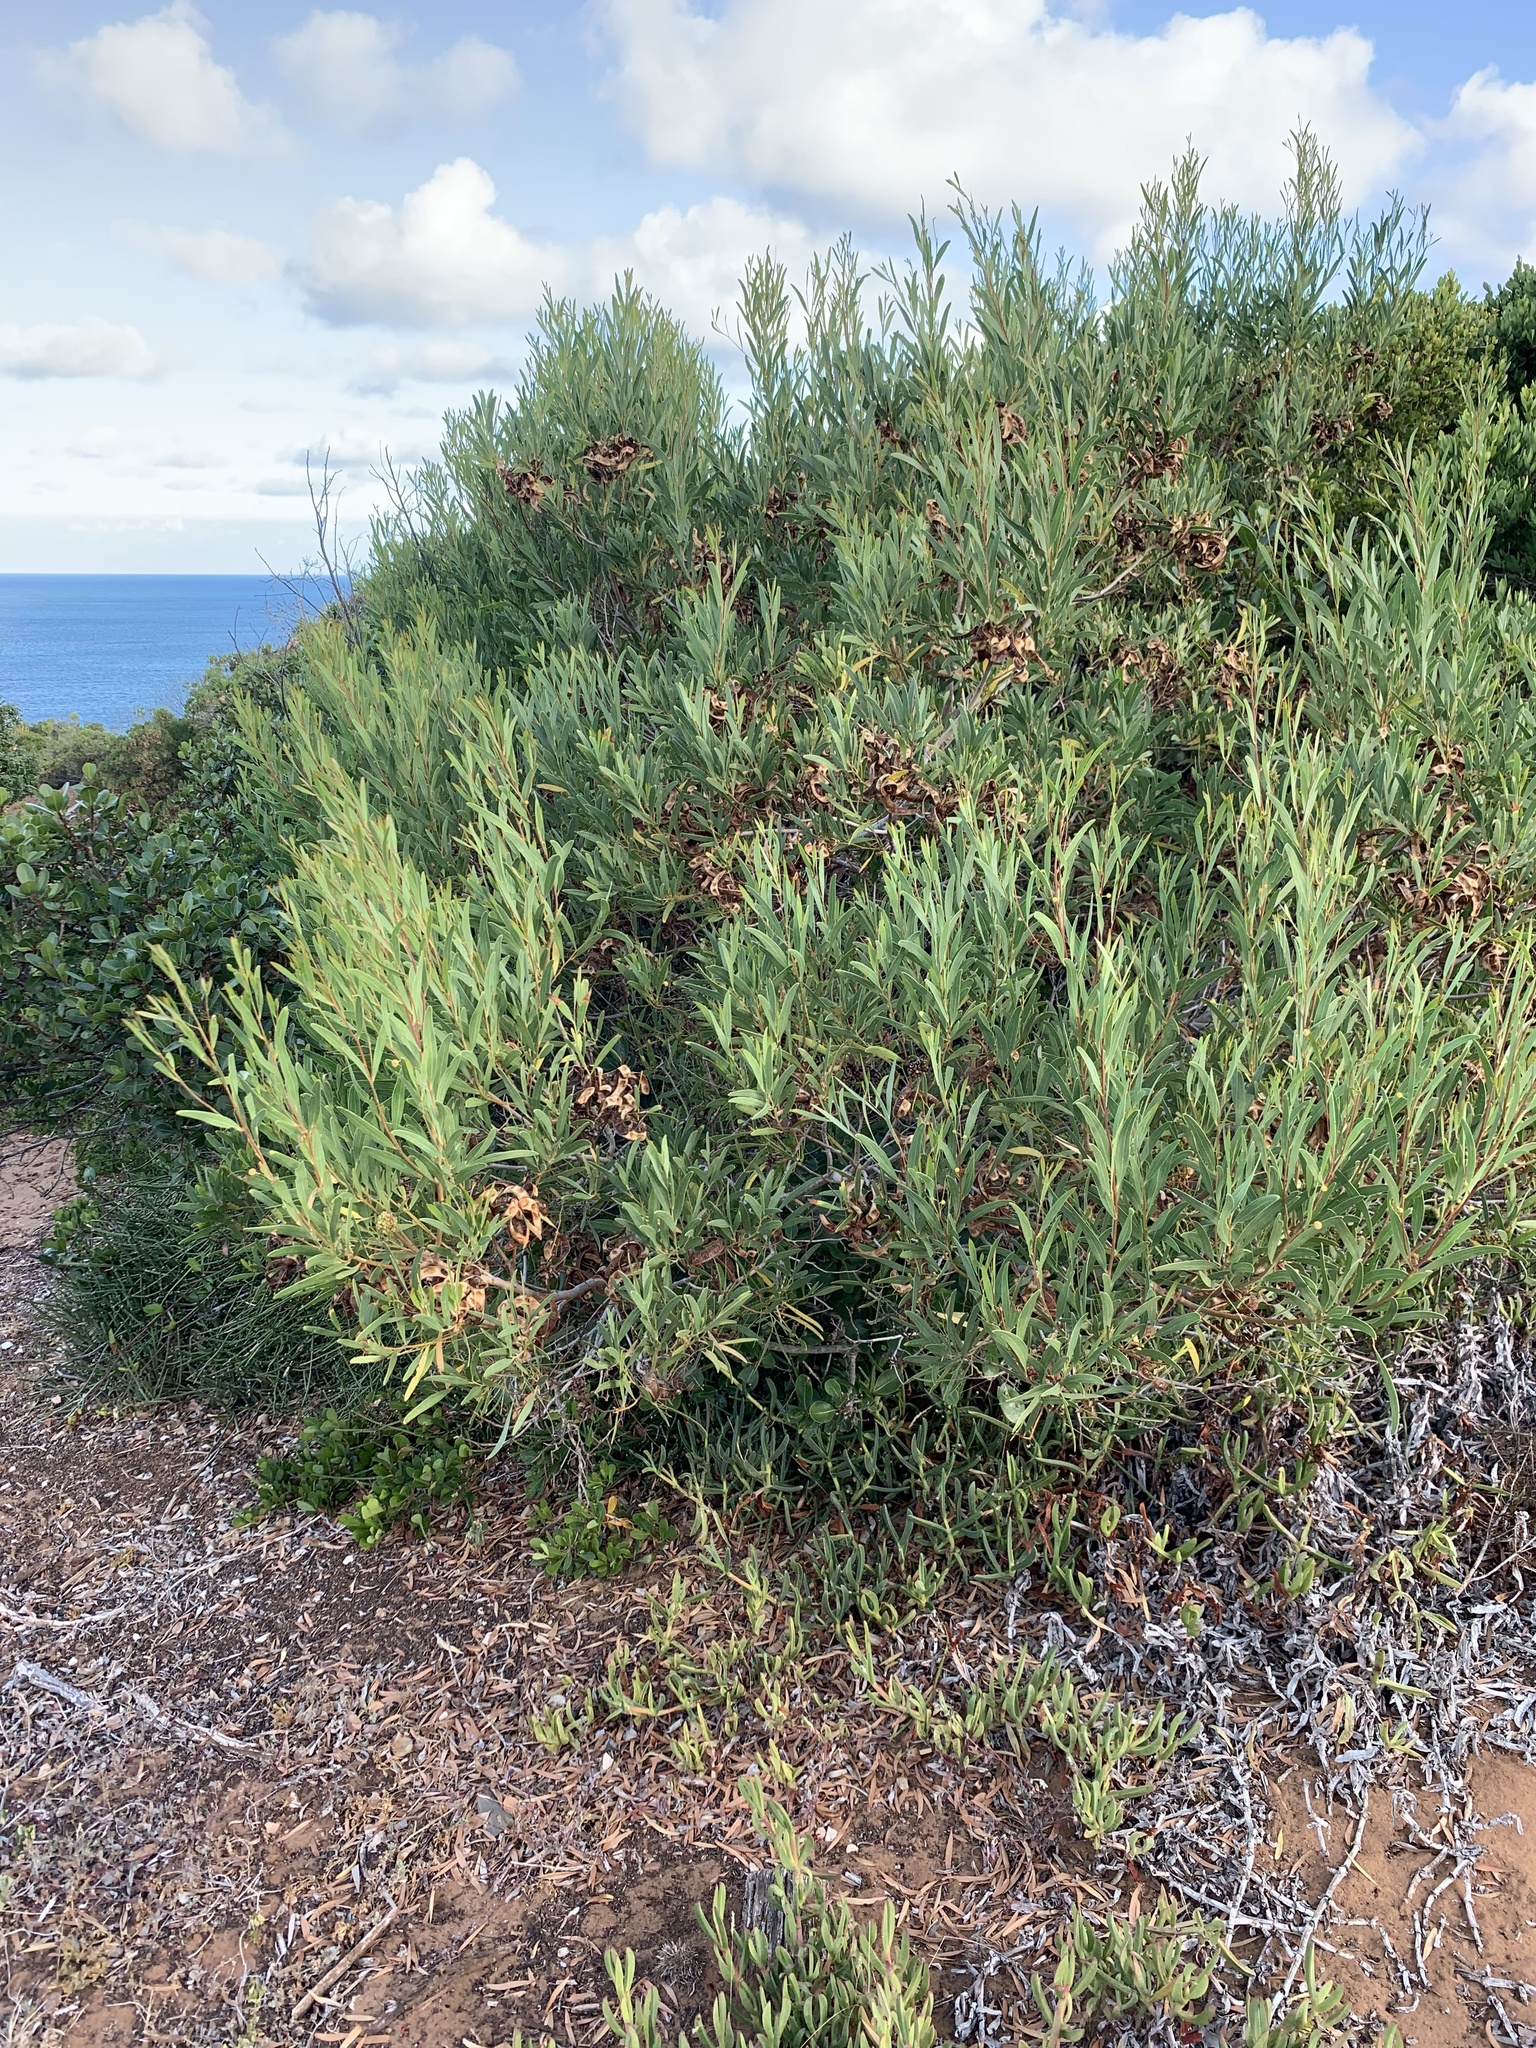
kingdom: Plantae
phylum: Tracheophyta
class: Magnoliopsida
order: Fabales
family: Fabaceae
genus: Acacia
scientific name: Acacia cyclops
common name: Coastal wattle
